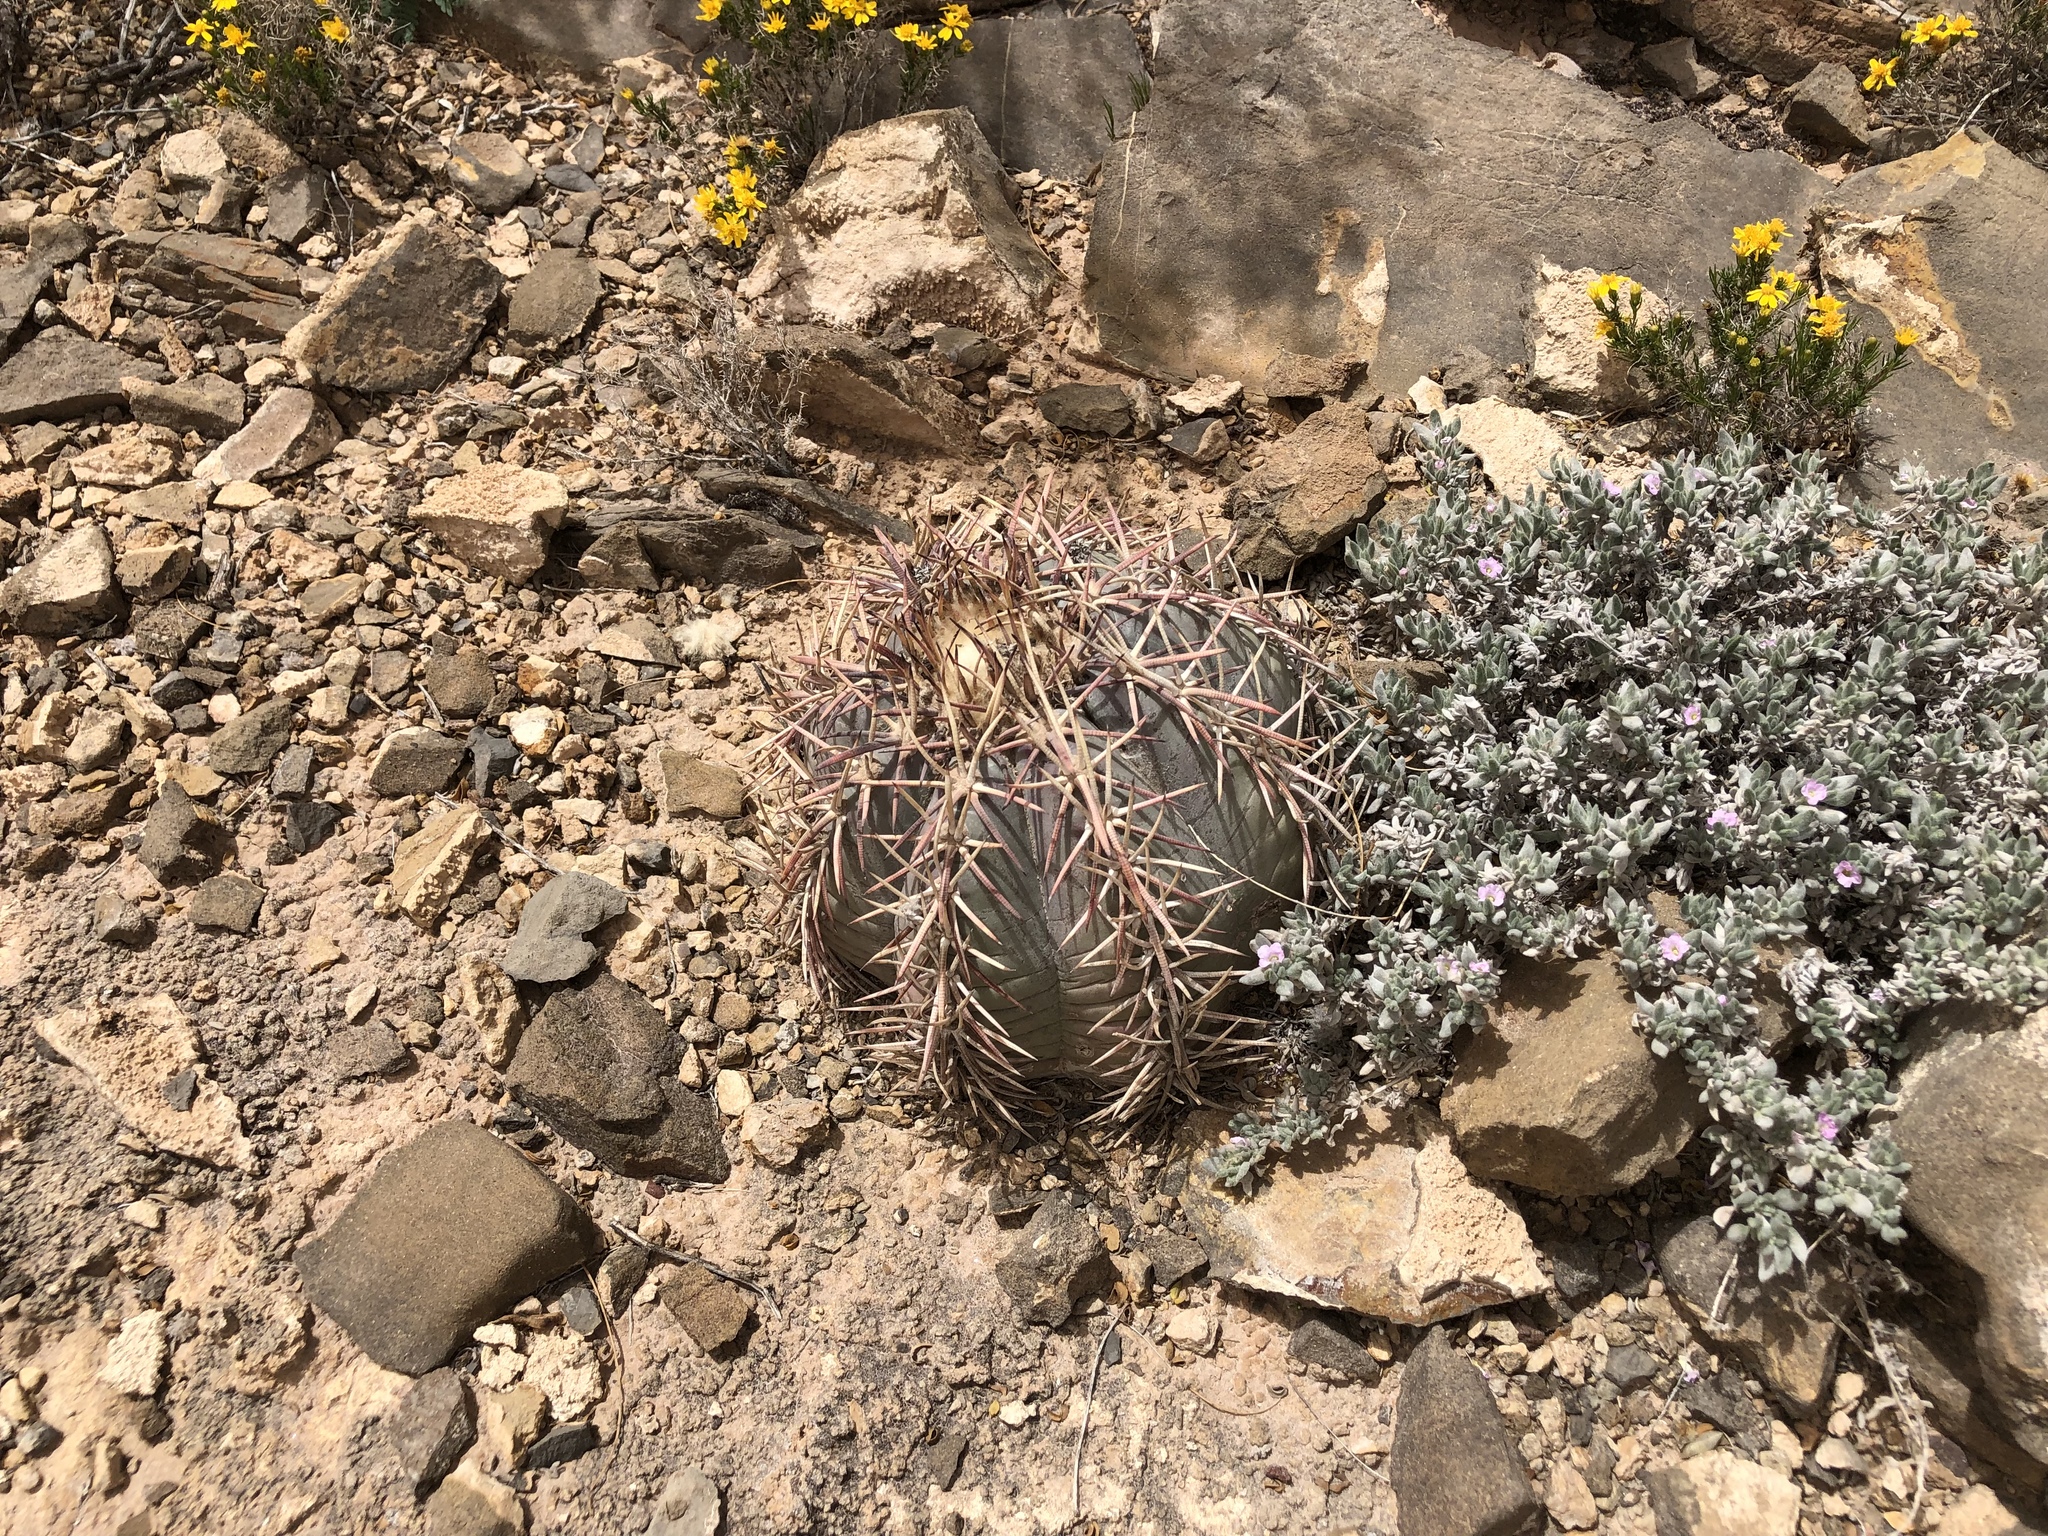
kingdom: Plantae
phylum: Tracheophyta
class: Magnoliopsida
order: Caryophyllales
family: Cactaceae
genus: Echinocactus
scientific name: Echinocactus horizonthalonius
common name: Devilshead
